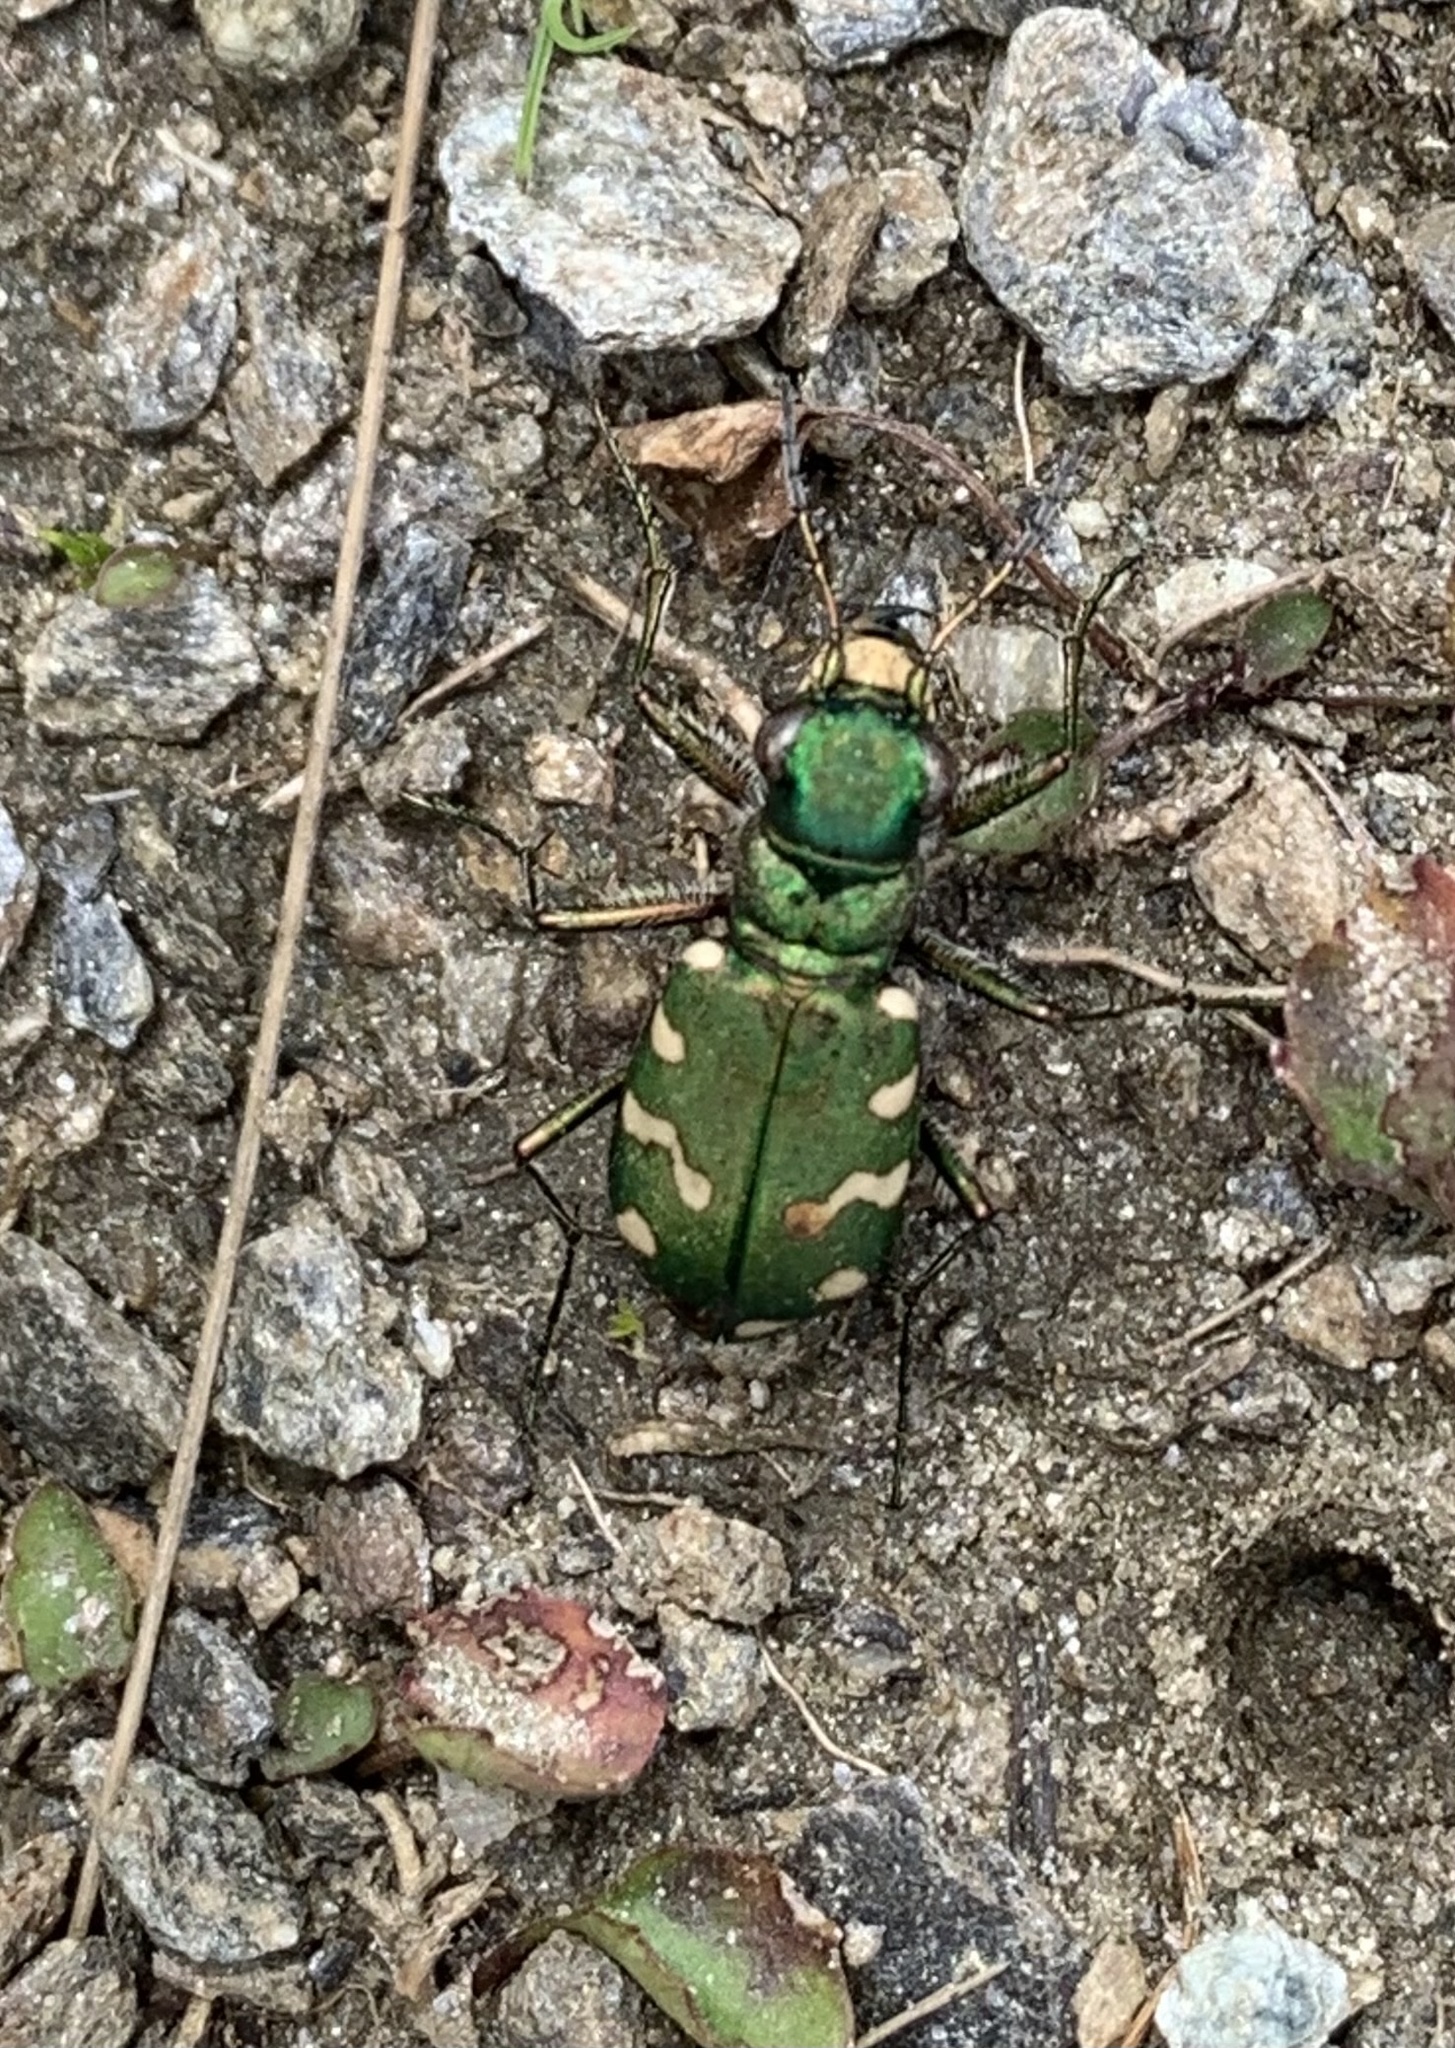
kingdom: Animalia
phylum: Arthropoda
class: Insecta
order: Coleoptera
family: Carabidae
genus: Cicindela
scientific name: Cicindela gallica
